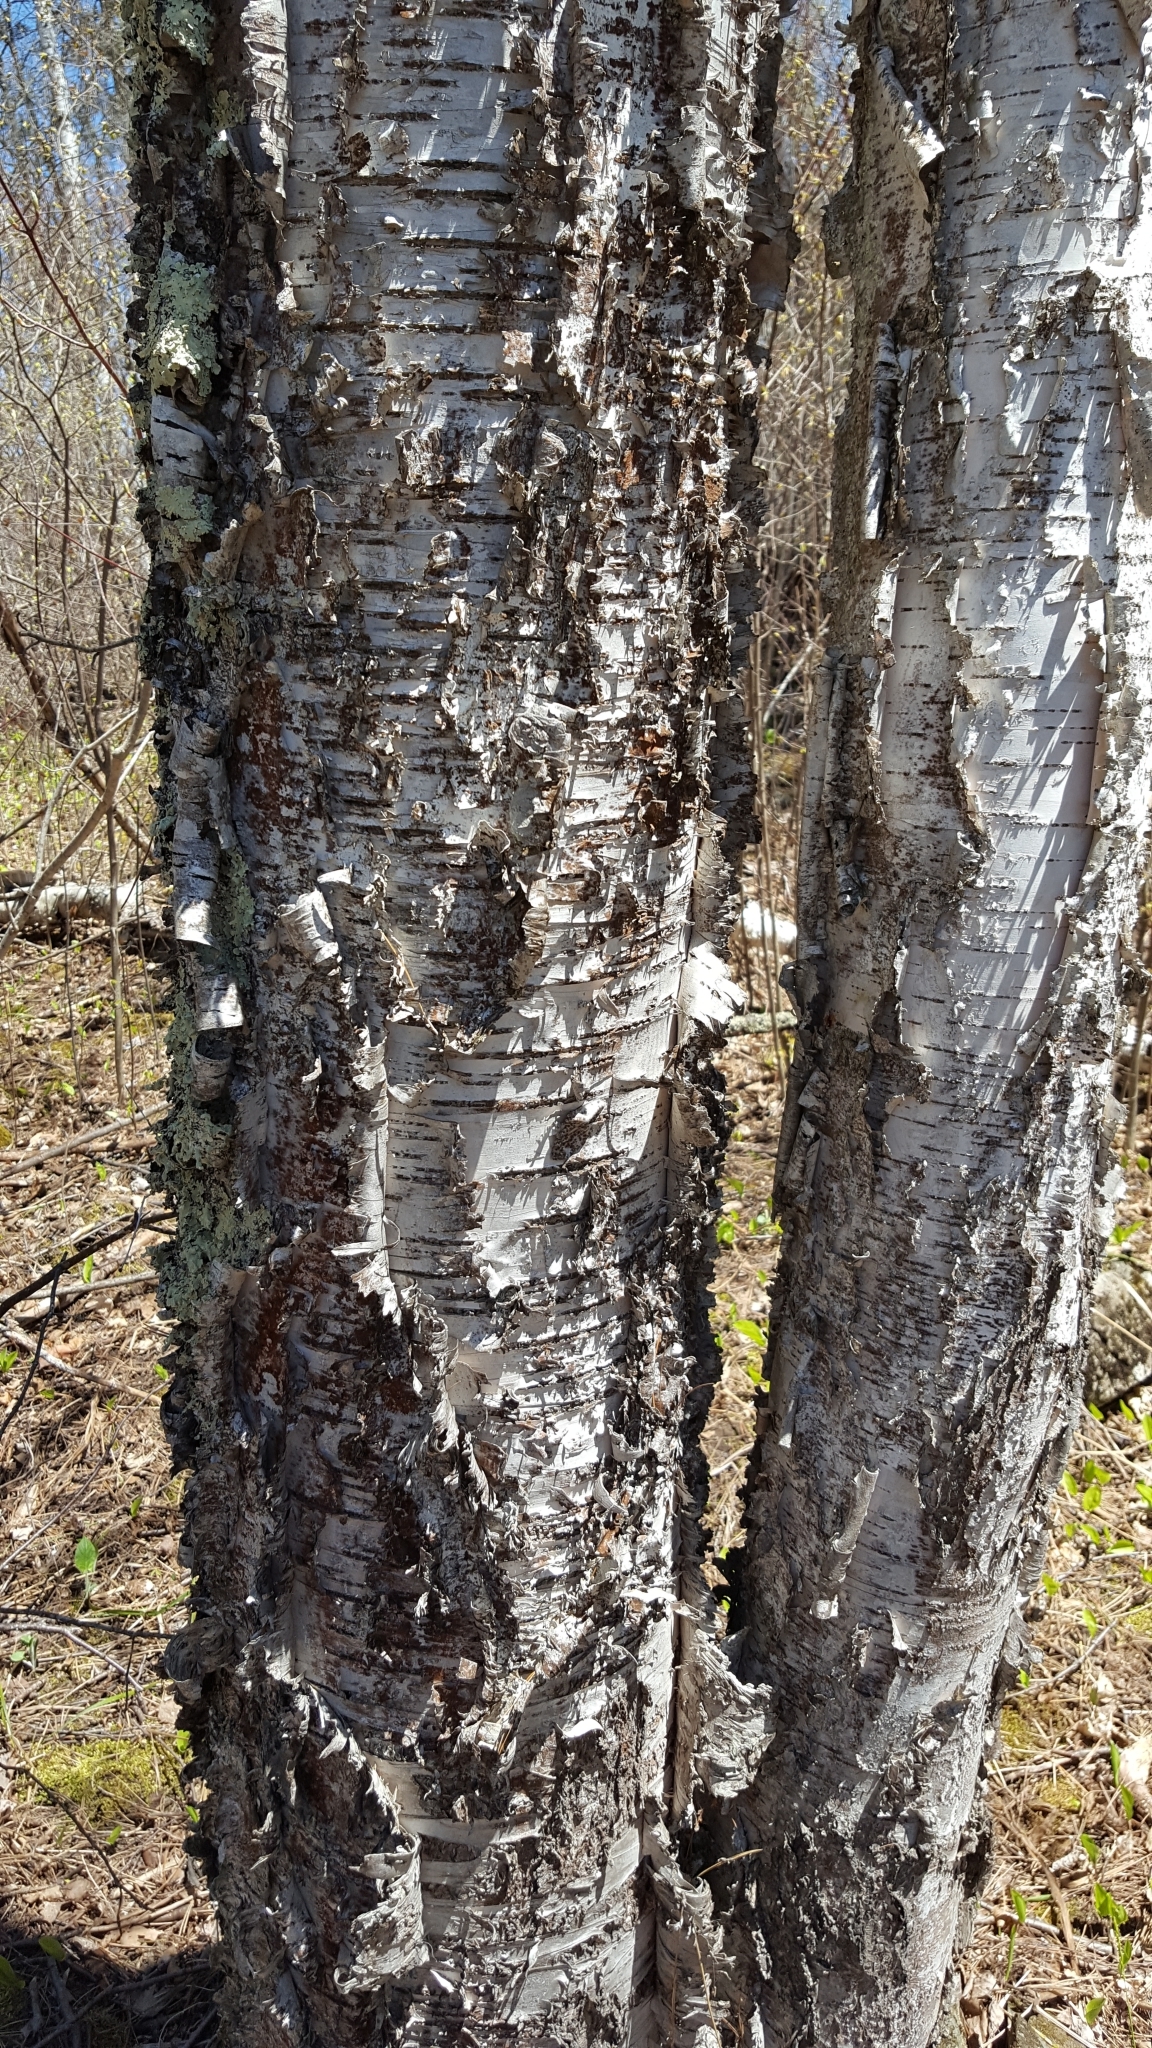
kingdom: Plantae
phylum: Tracheophyta
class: Magnoliopsida
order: Fagales
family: Betulaceae
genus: Betula
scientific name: Betula papyrifera
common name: Paper birch
